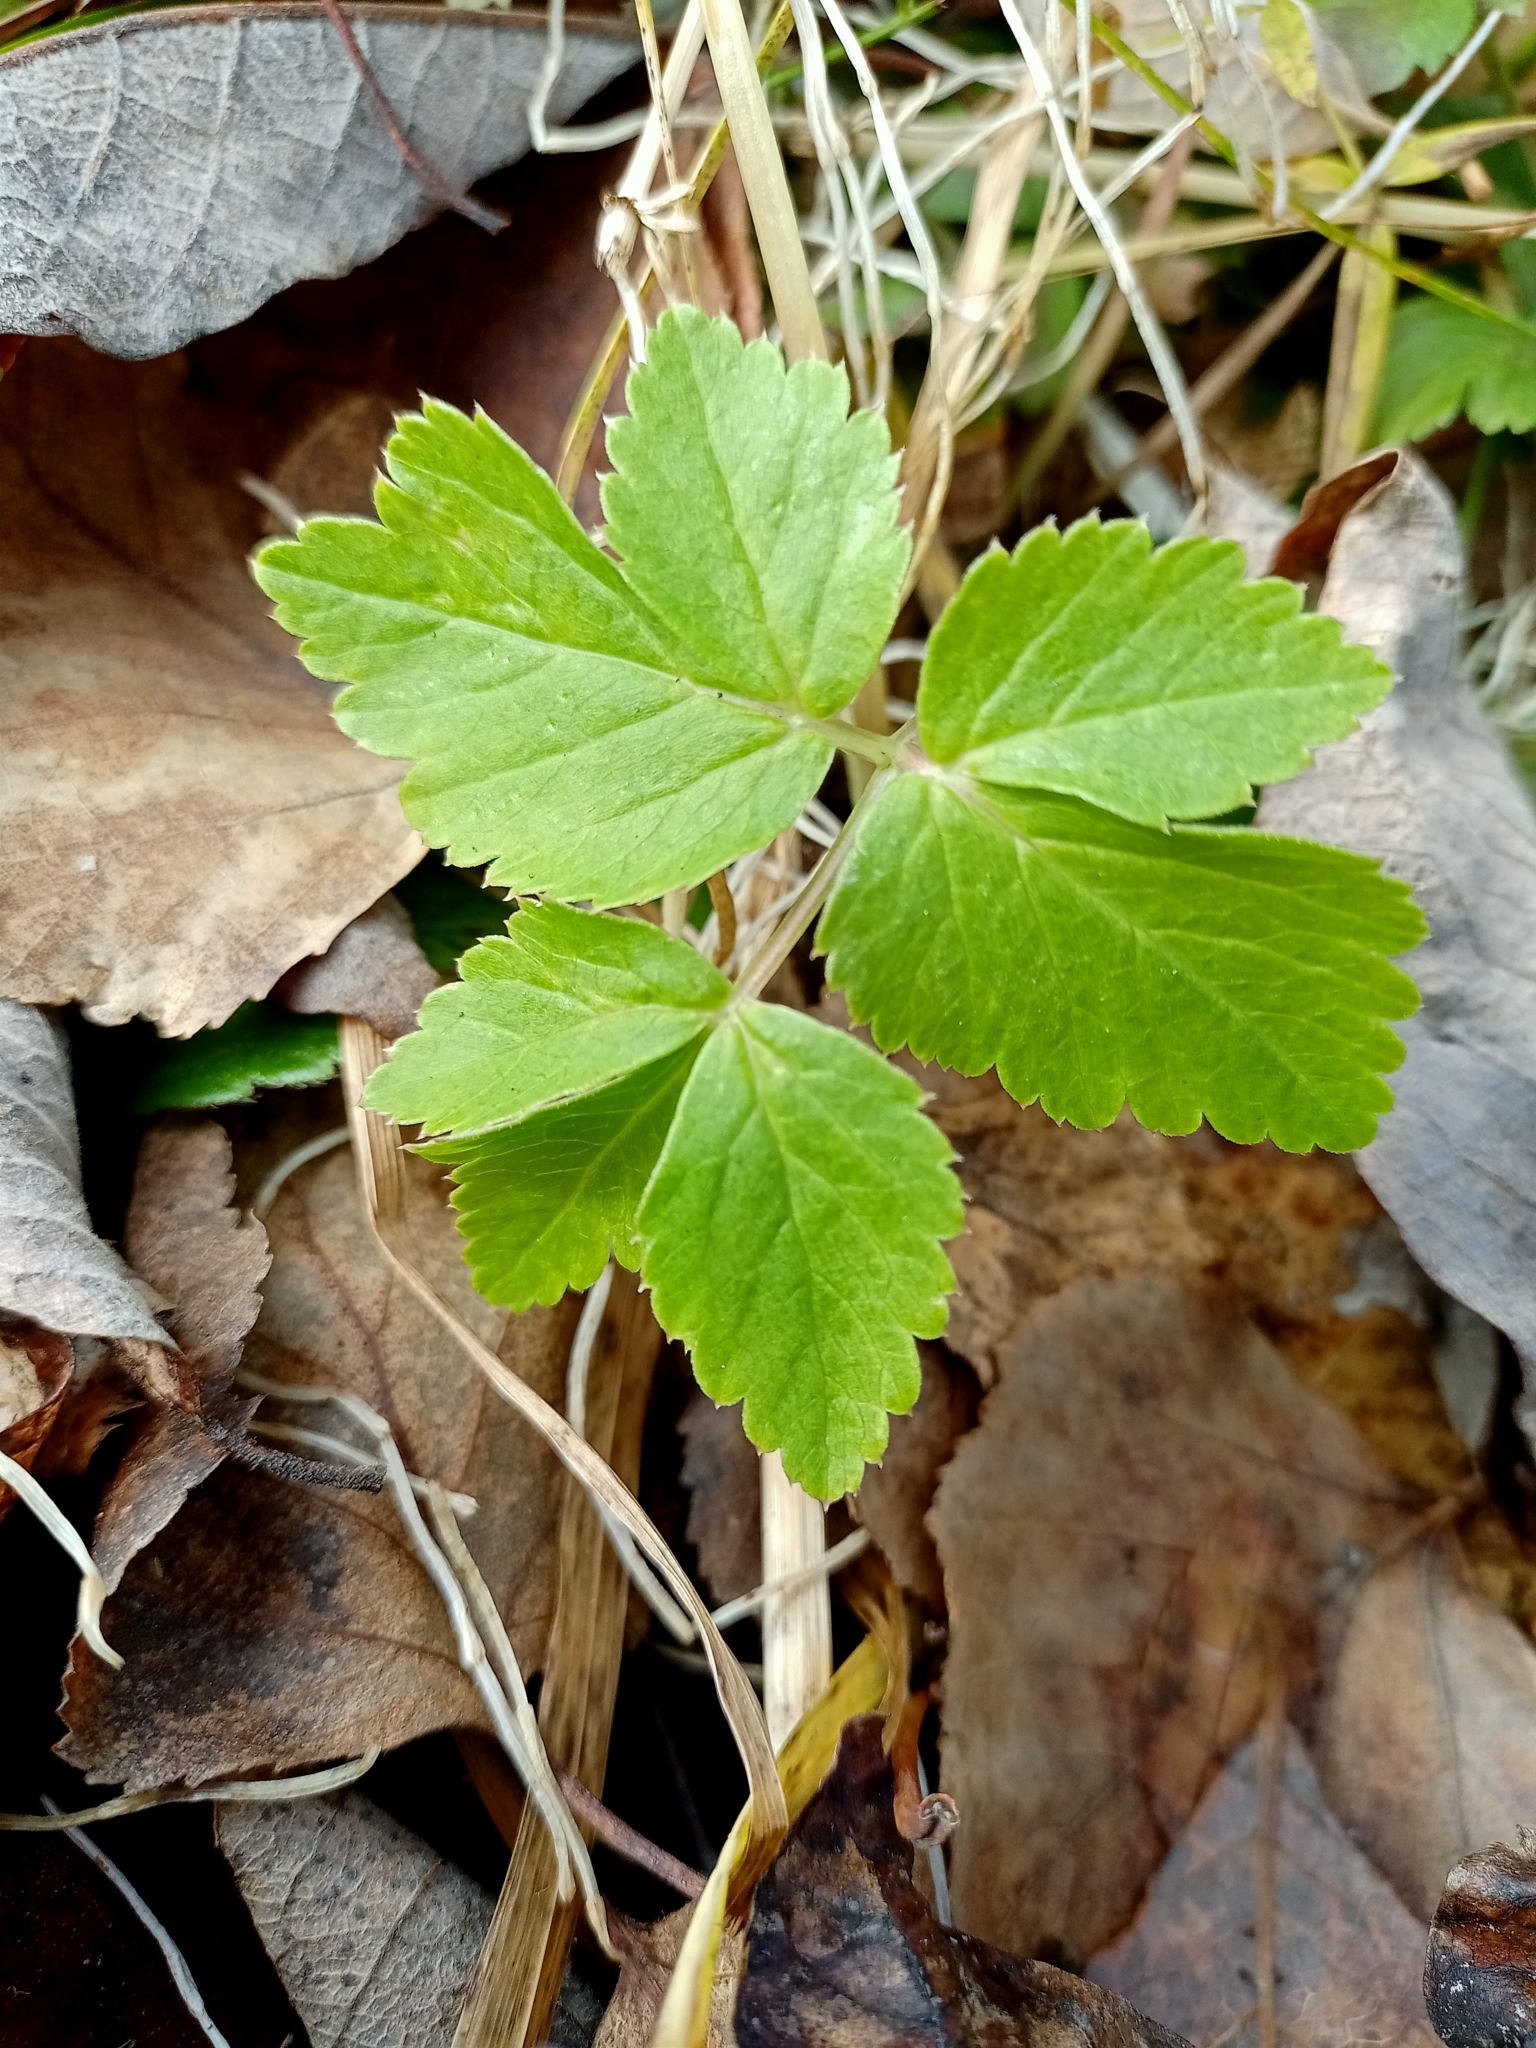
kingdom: Plantae
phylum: Tracheophyta
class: Magnoliopsida
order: Apiales
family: Apiaceae
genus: Aegopodium
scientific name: Aegopodium latifolium
